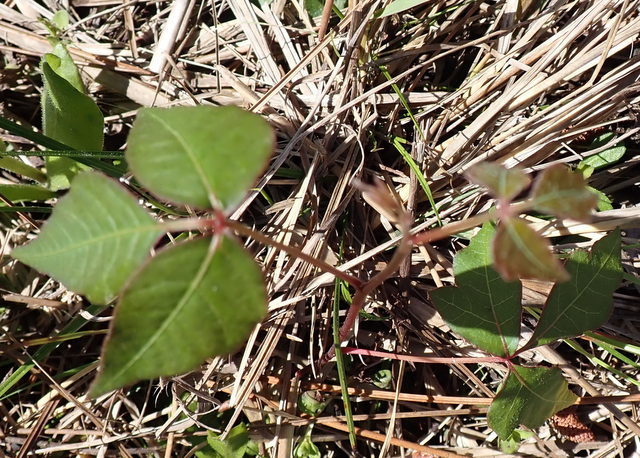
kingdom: Plantae
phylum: Tracheophyta
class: Magnoliopsida
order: Sapindales
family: Anacardiaceae
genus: Toxicodendron
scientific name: Toxicodendron radicans
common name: Poison ivy
